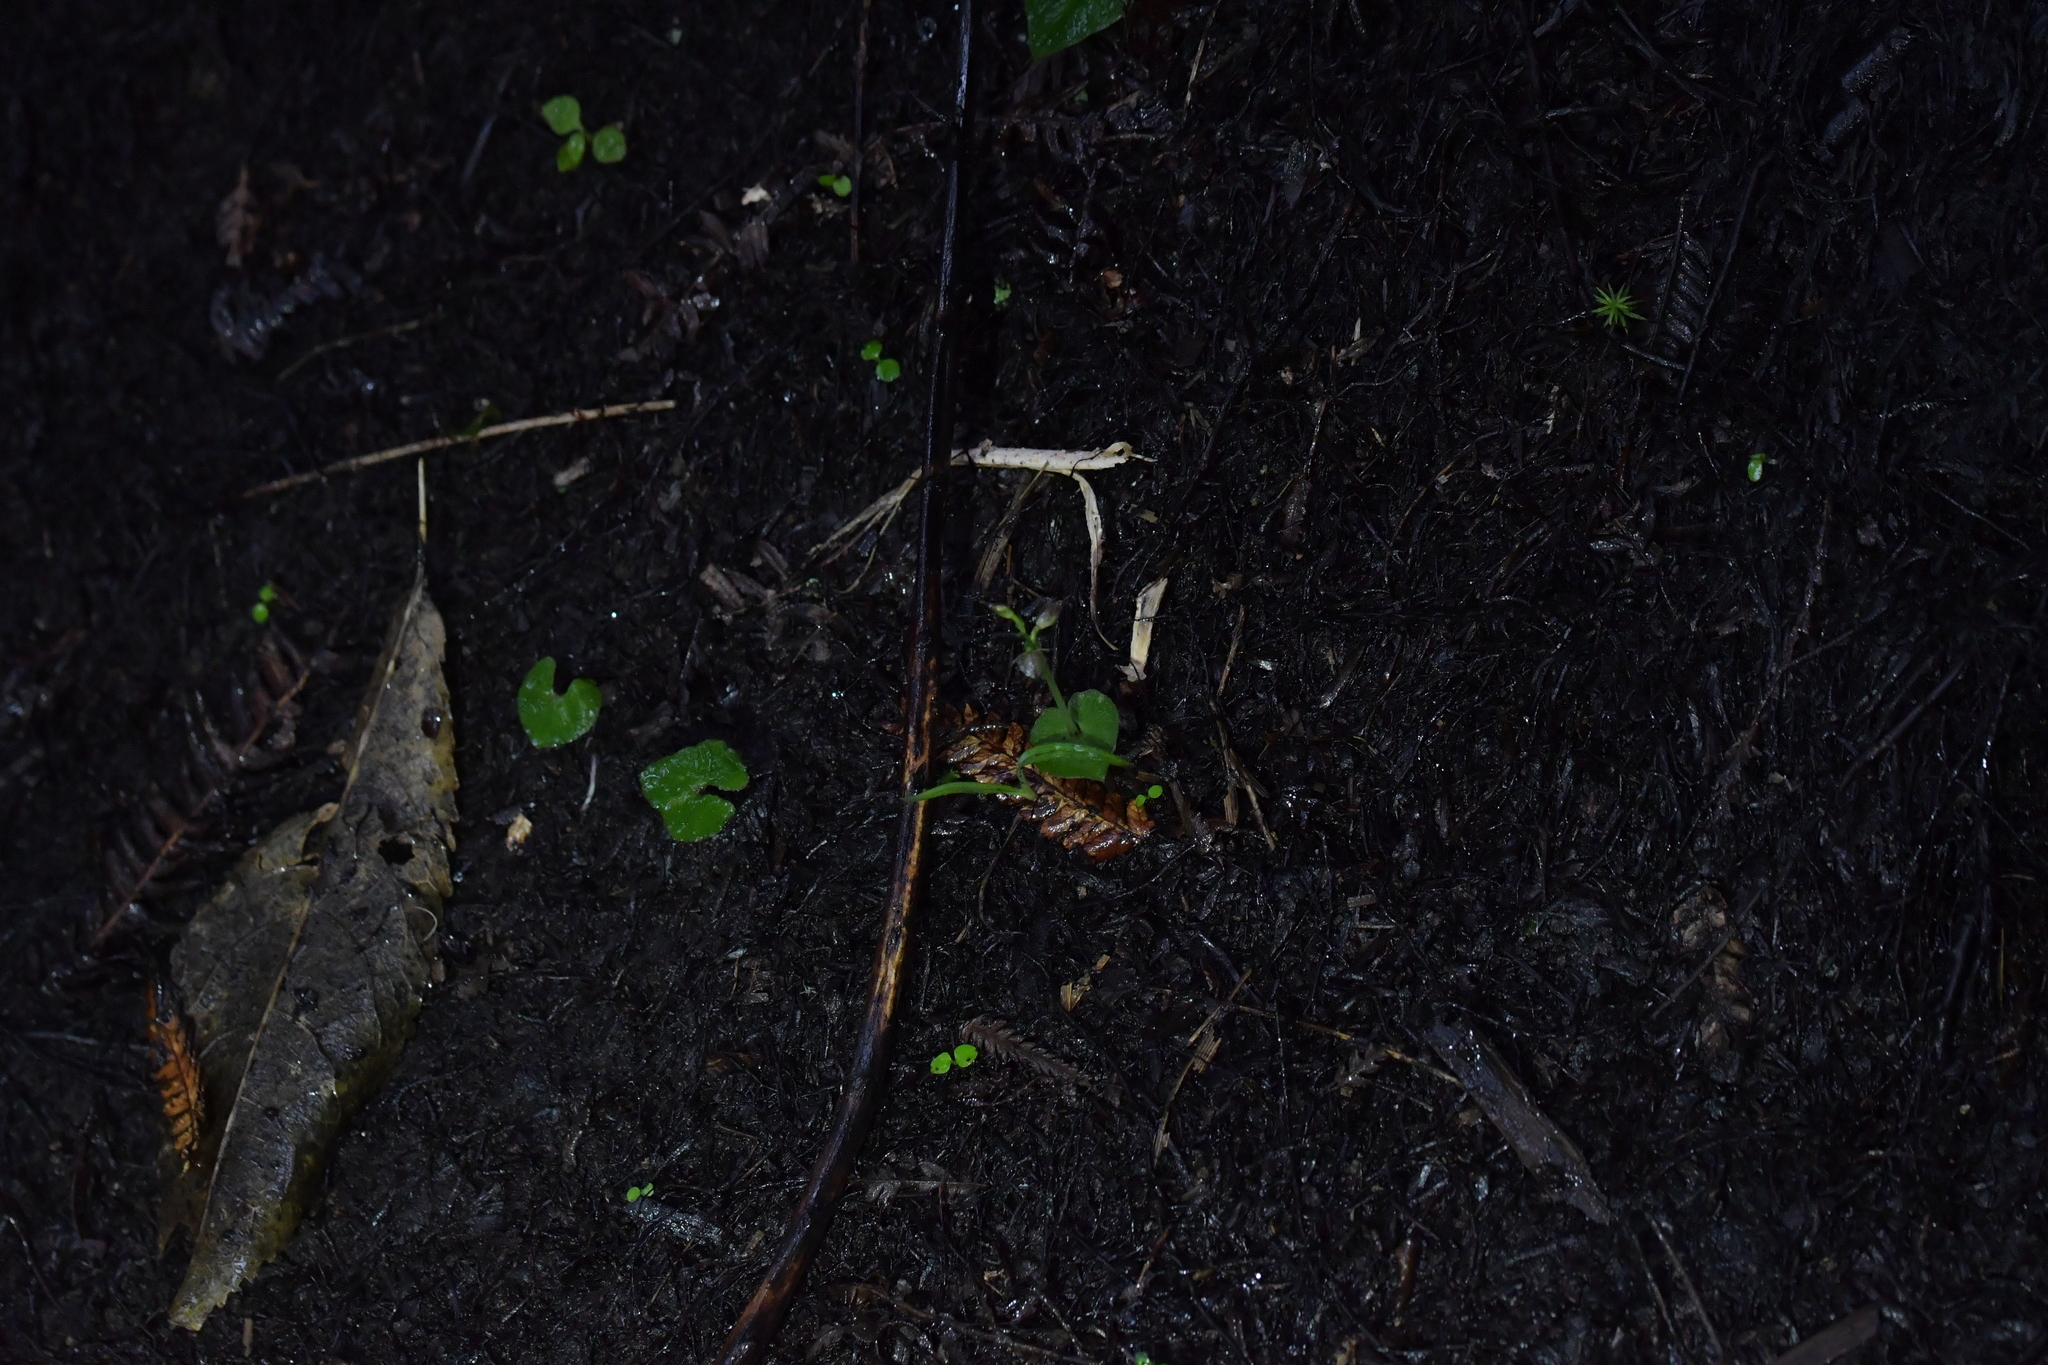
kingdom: Plantae
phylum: Tracheophyta
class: Liliopsida
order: Asparagales
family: Orchidaceae
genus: Acianthus
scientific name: Acianthus sinclairii
